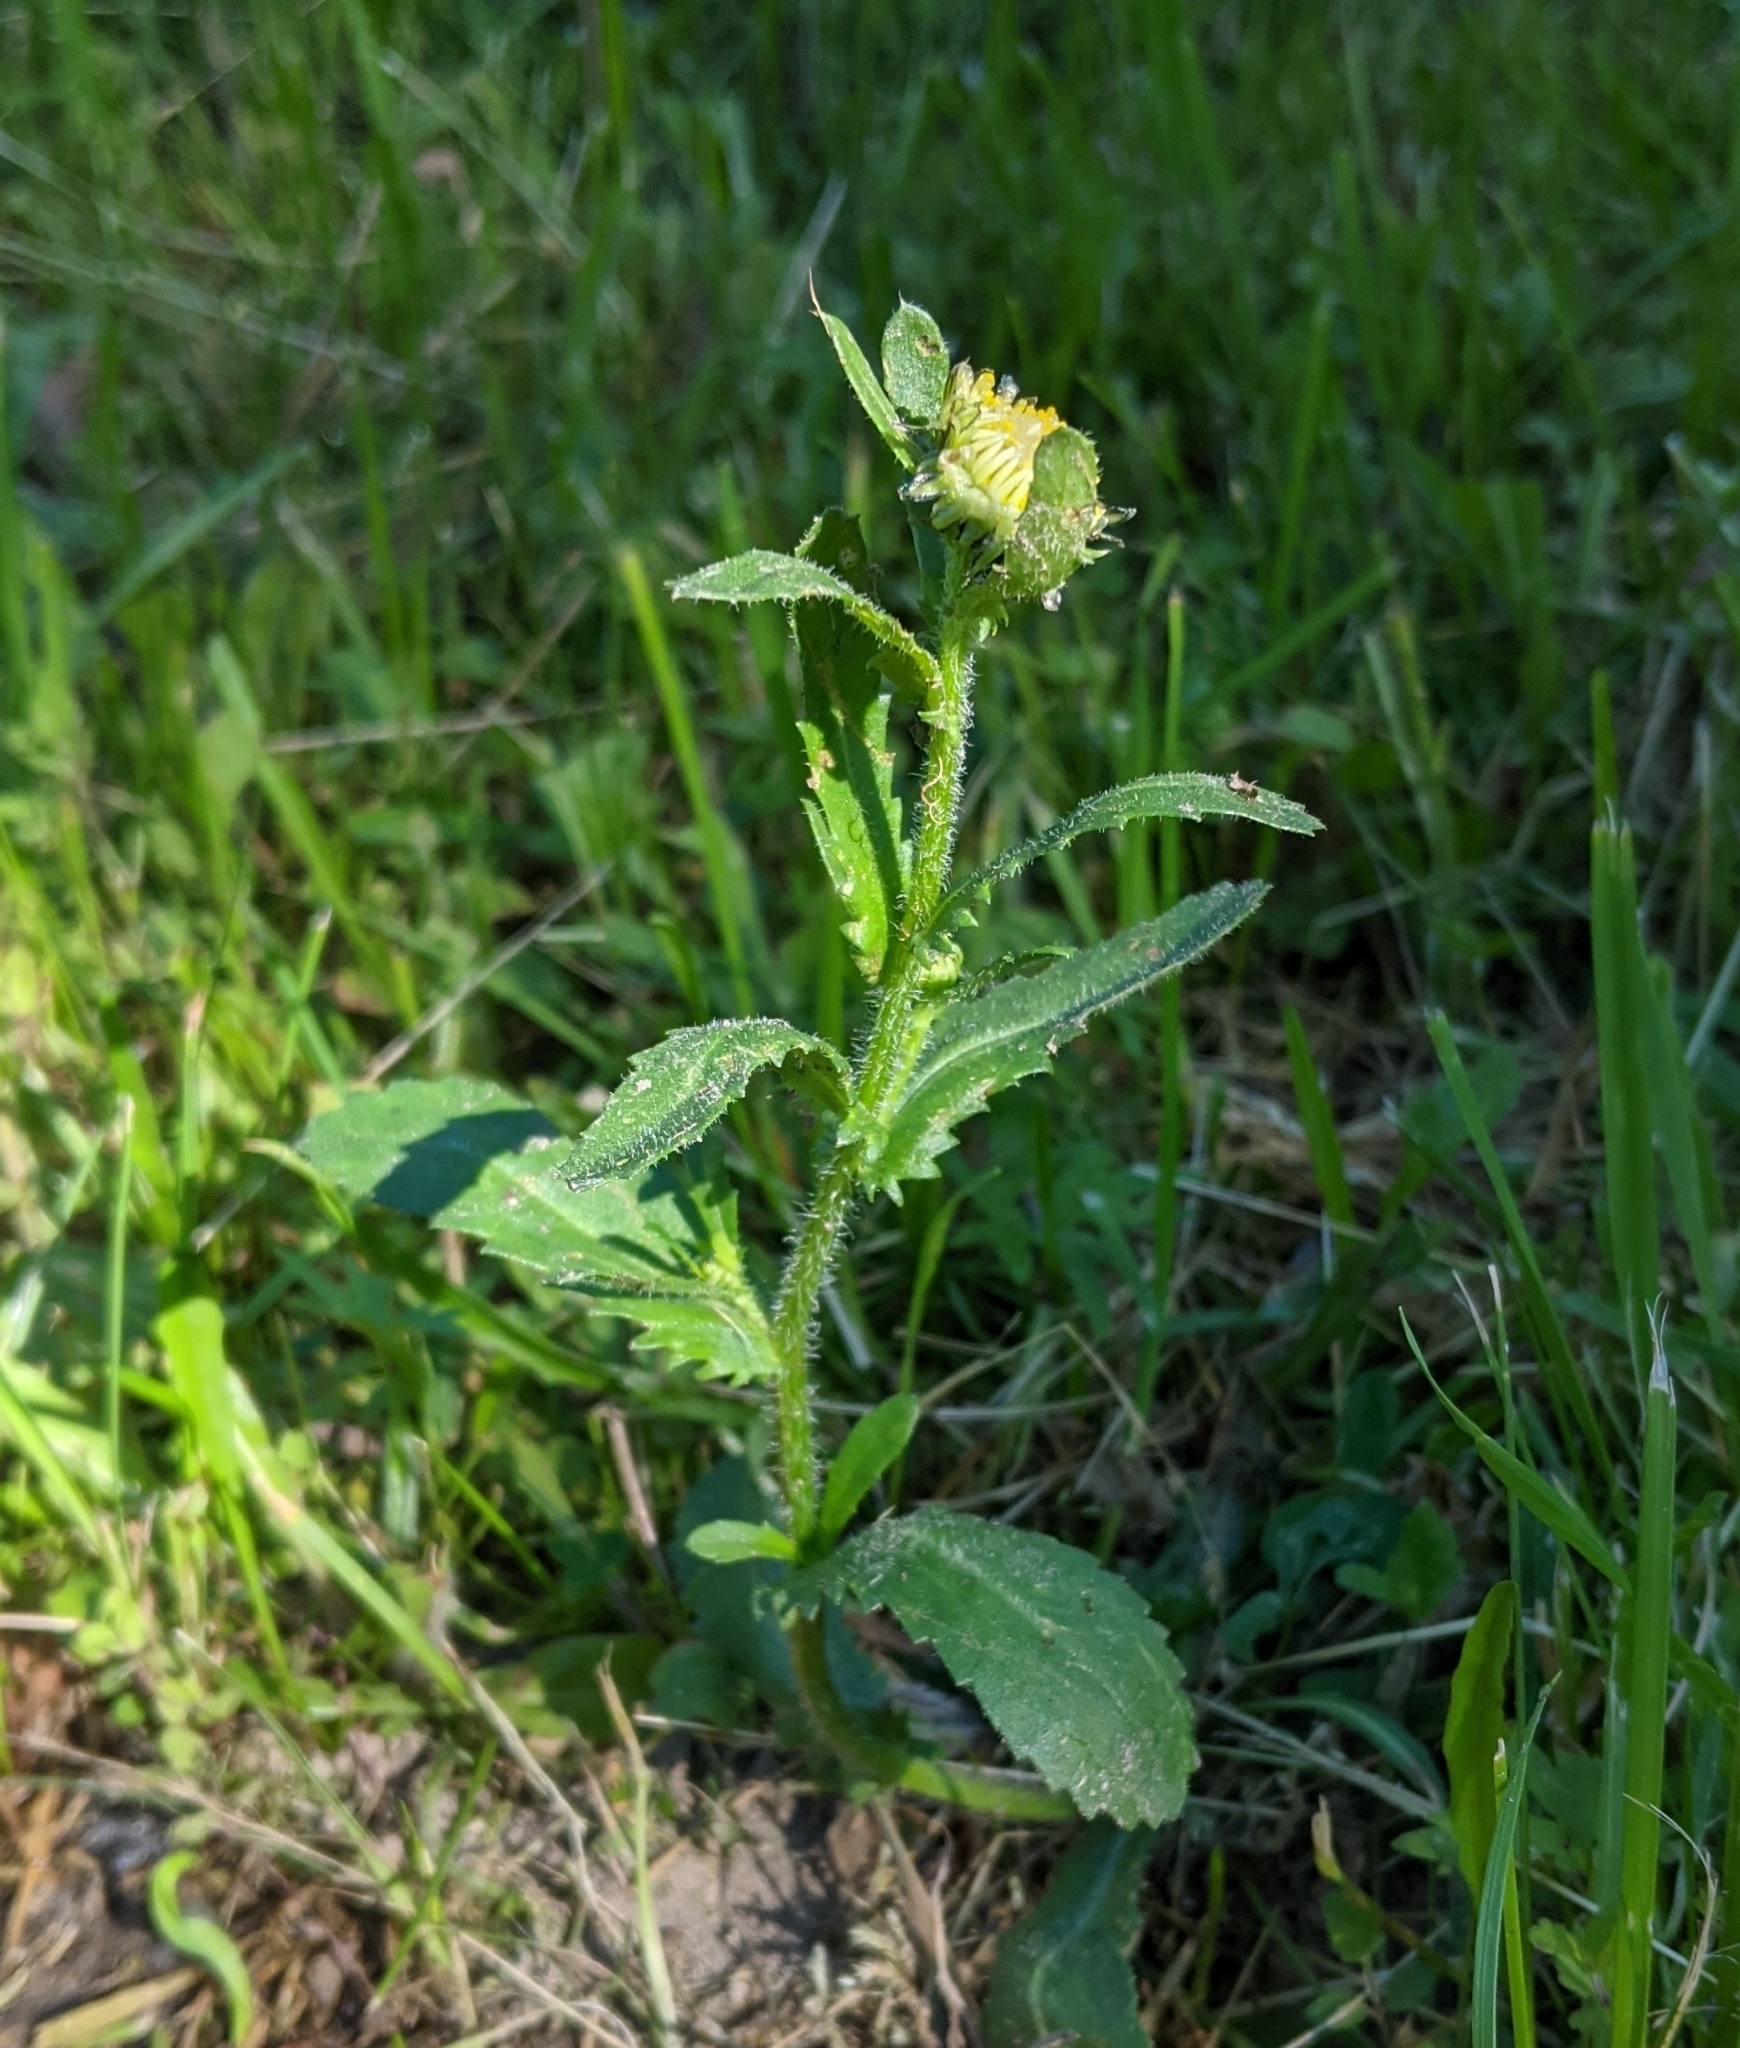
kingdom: Plantae
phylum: Tracheophyta
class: Magnoliopsida
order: Asterales
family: Asteraceae
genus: Leucanthemum
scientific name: Leucanthemum vulgare
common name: Oxeye daisy
